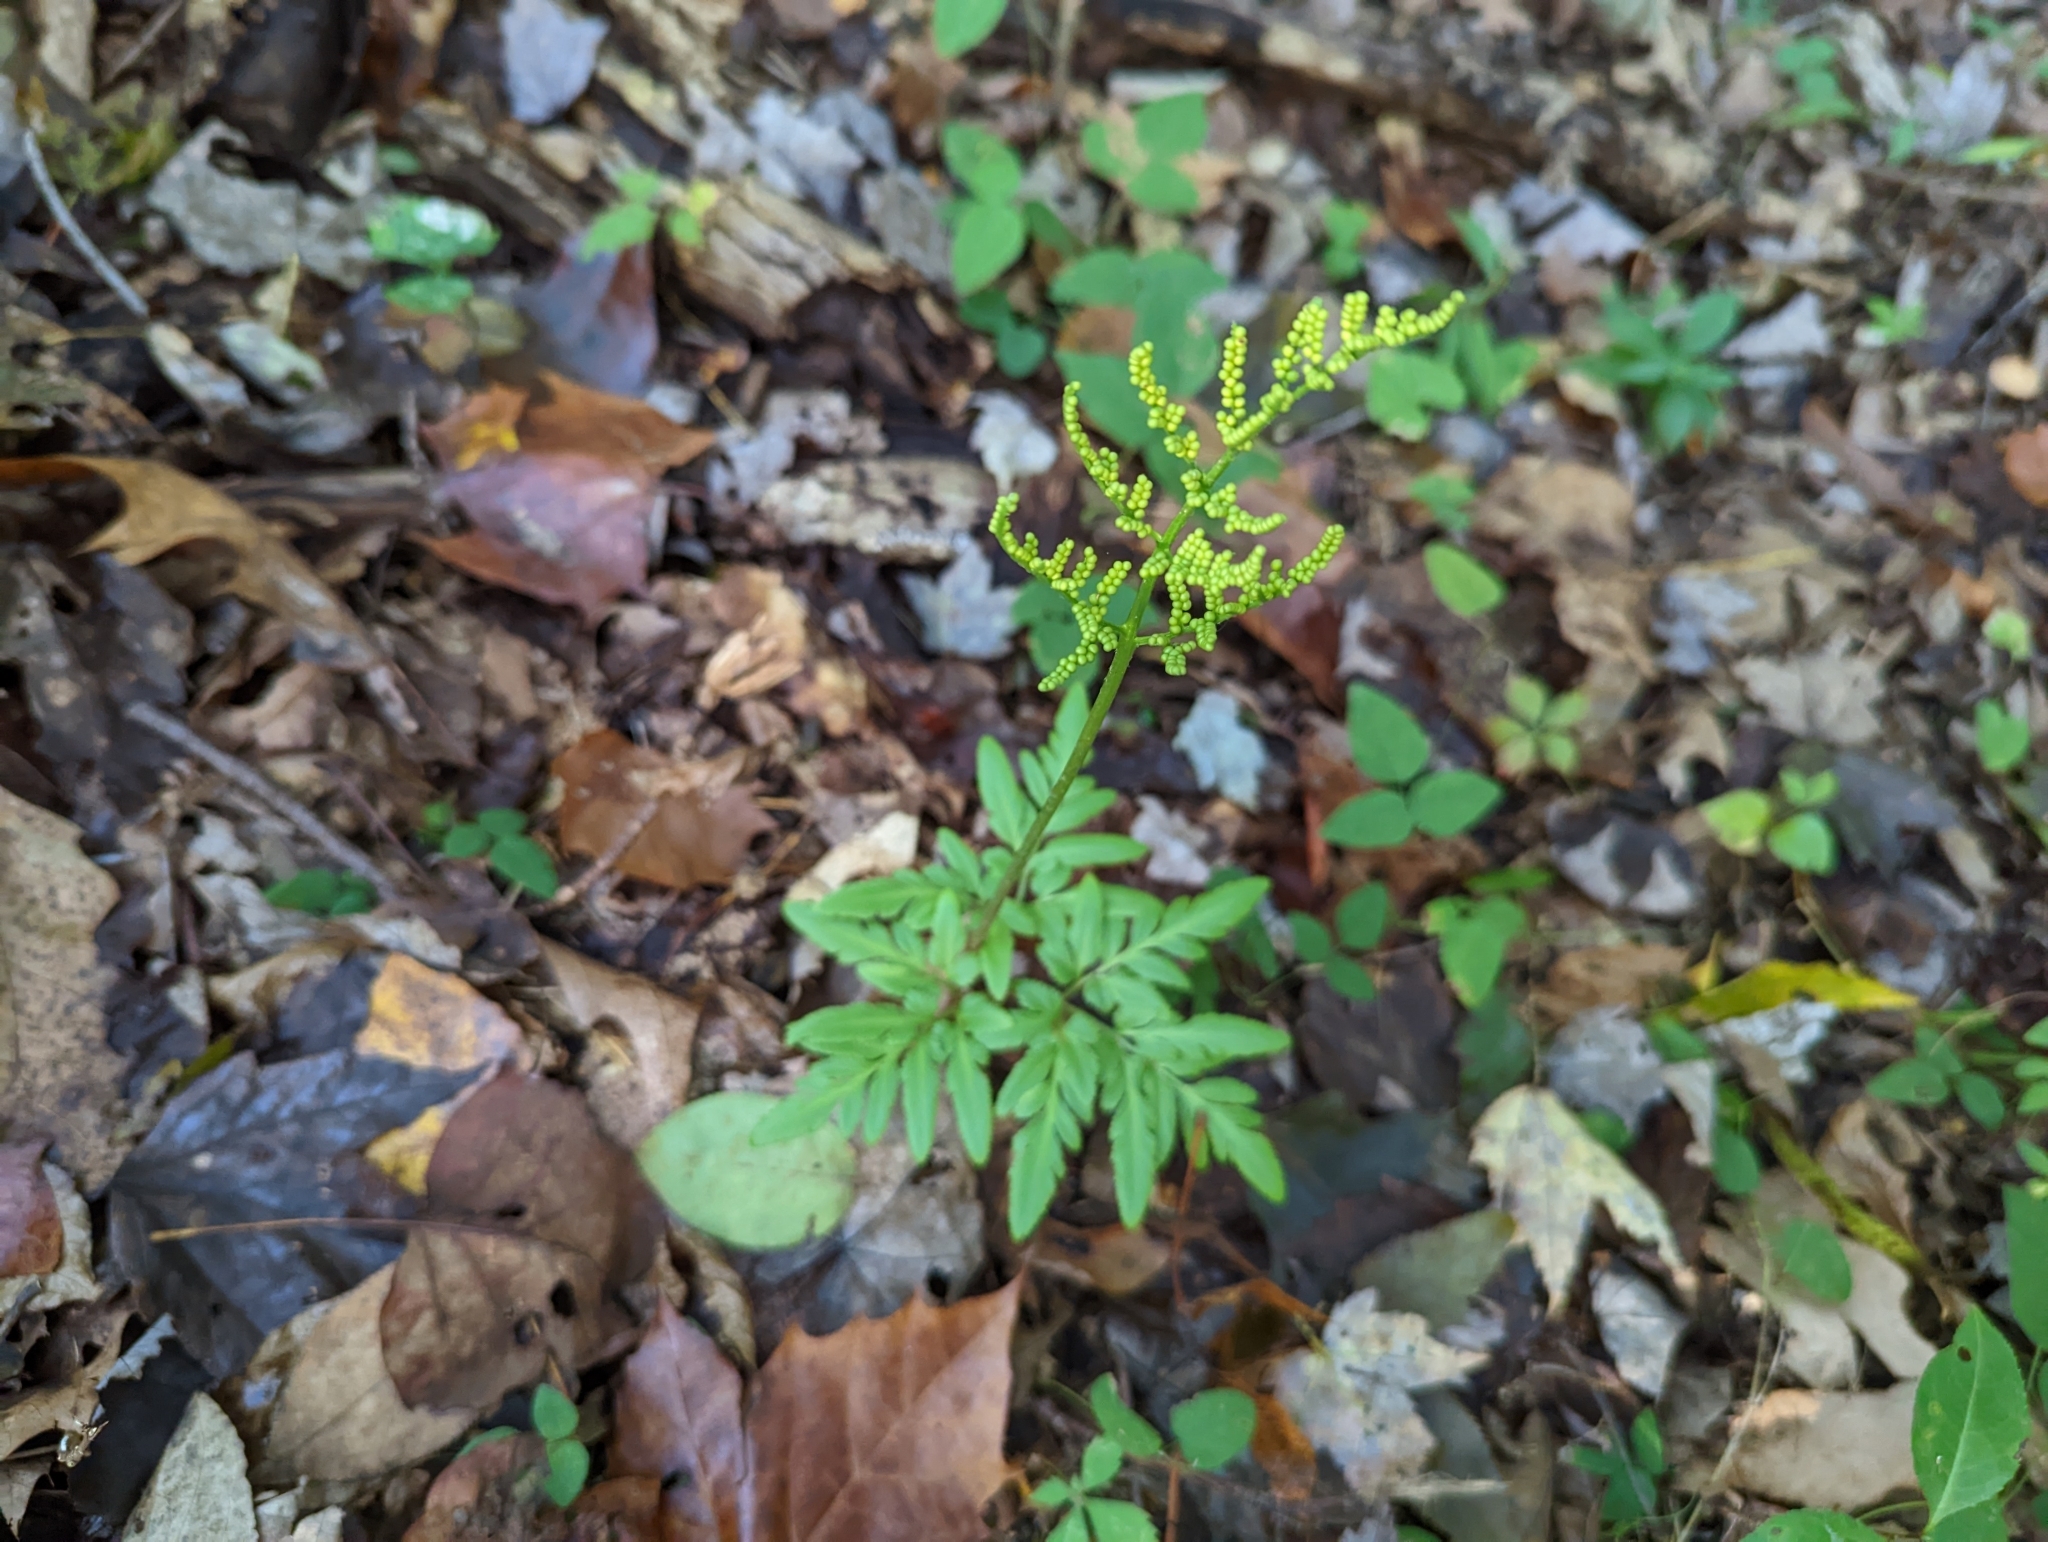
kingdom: Plantae
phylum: Tracheophyta
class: Polypodiopsida
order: Ophioglossales
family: Ophioglossaceae
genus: Sceptridium
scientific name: Sceptridium dissectum
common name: Cut-leaved grapefern
